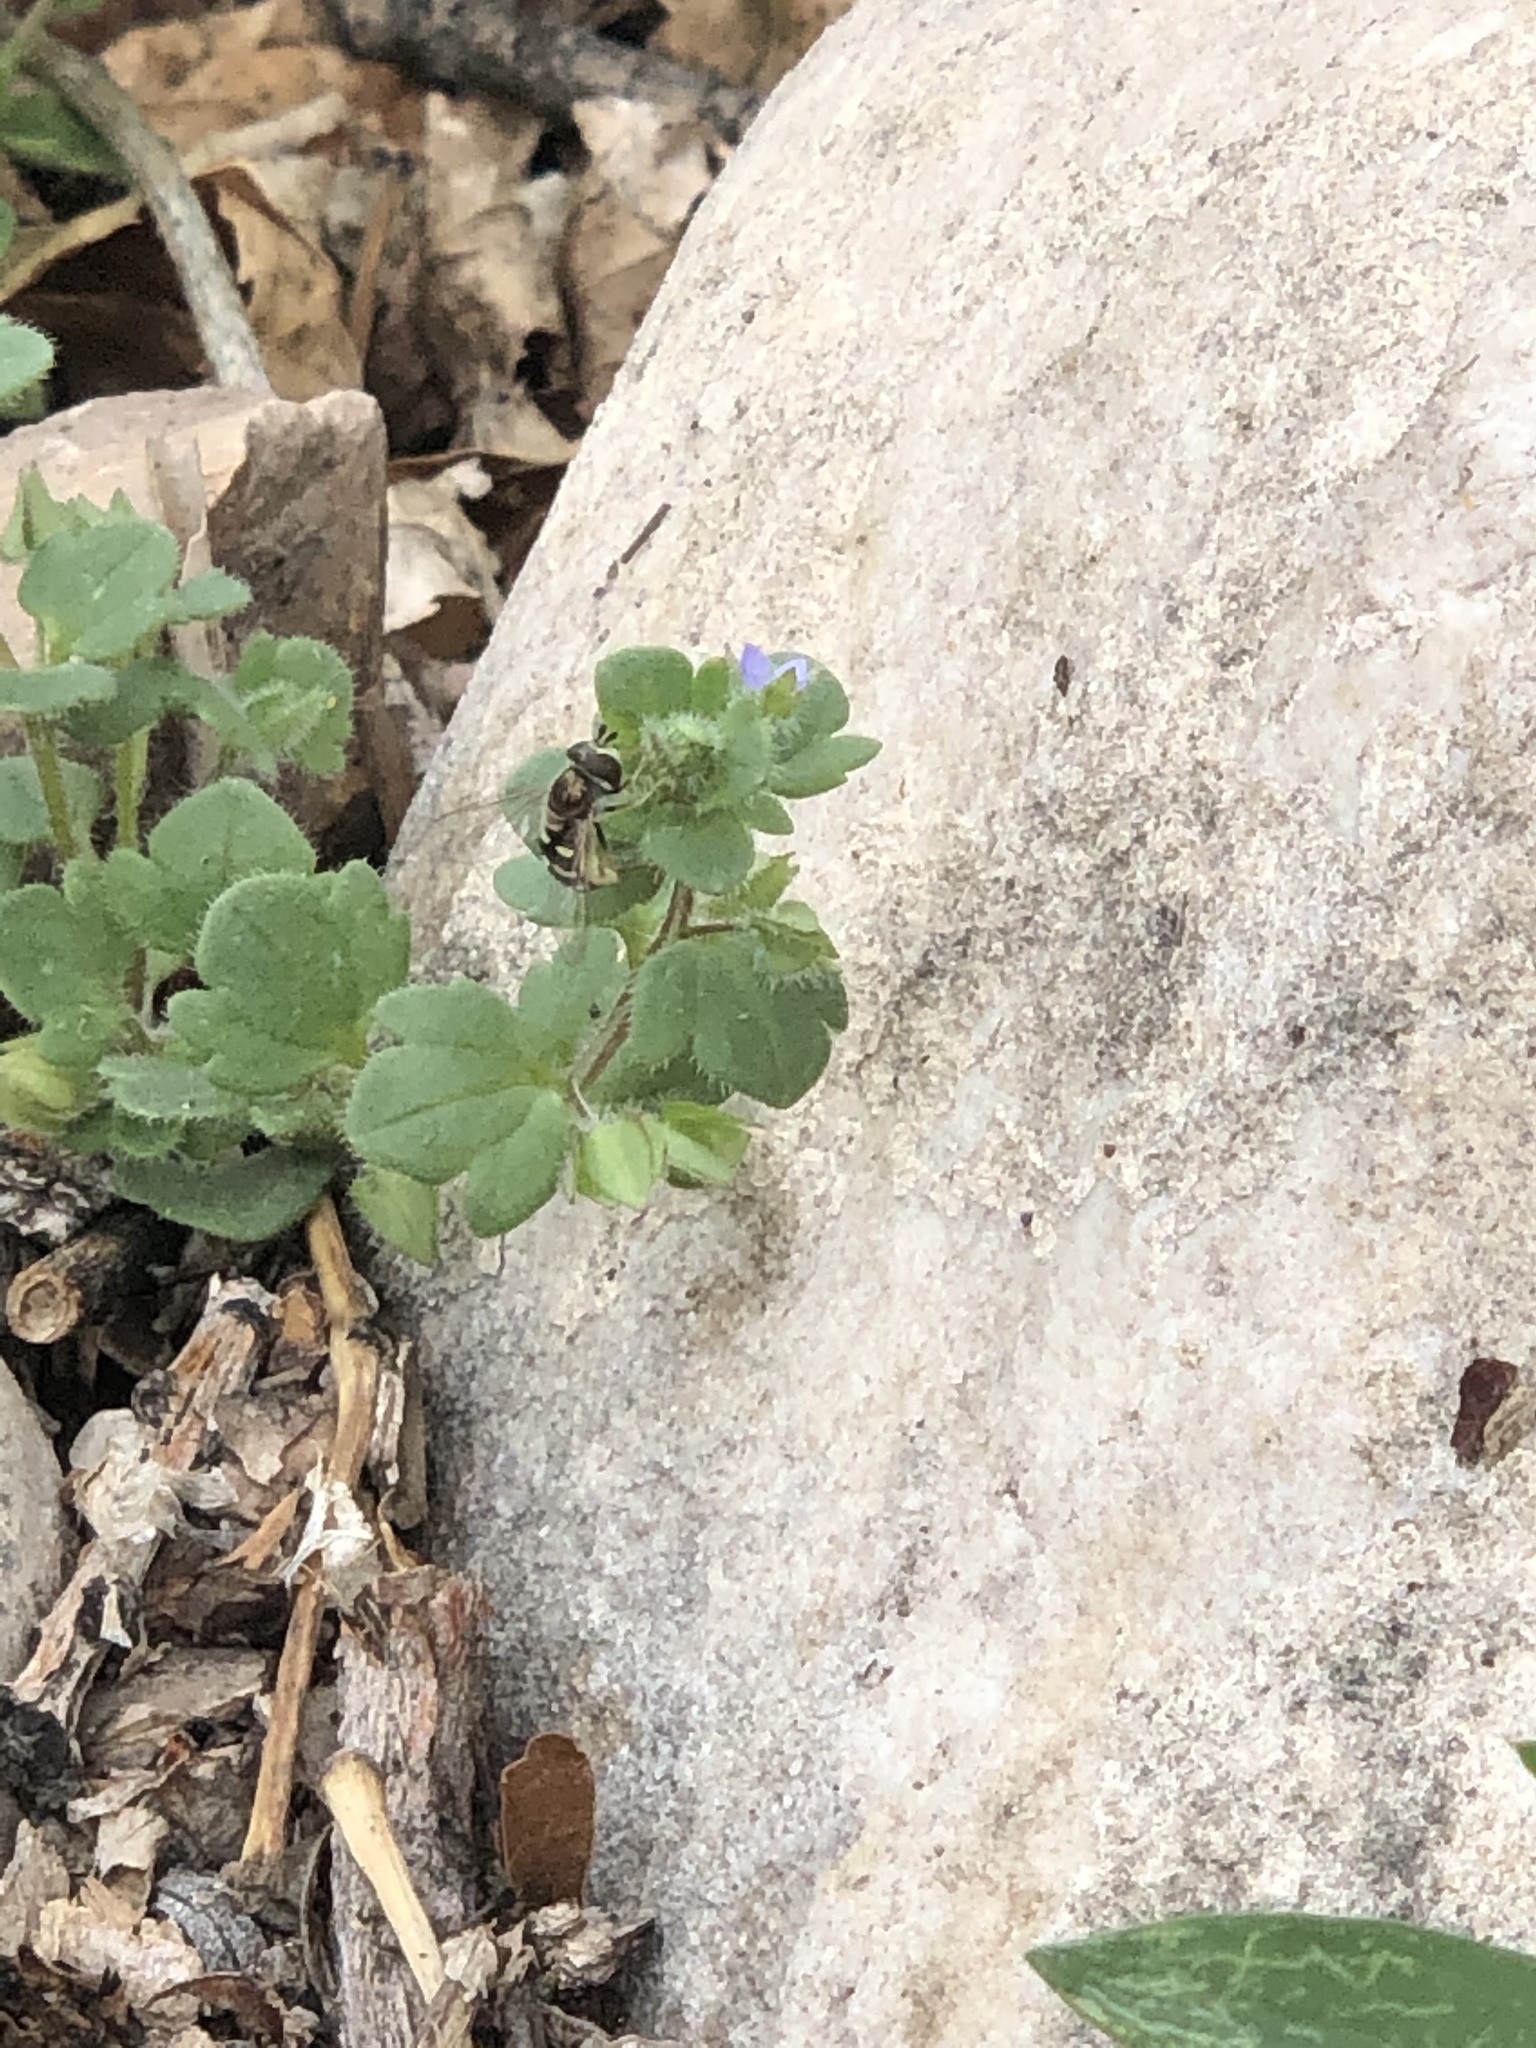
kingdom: Animalia
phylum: Arthropoda
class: Insecta
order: Diptera
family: Syrphidae
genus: Eupeodes
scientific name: Eupeodes volucris
